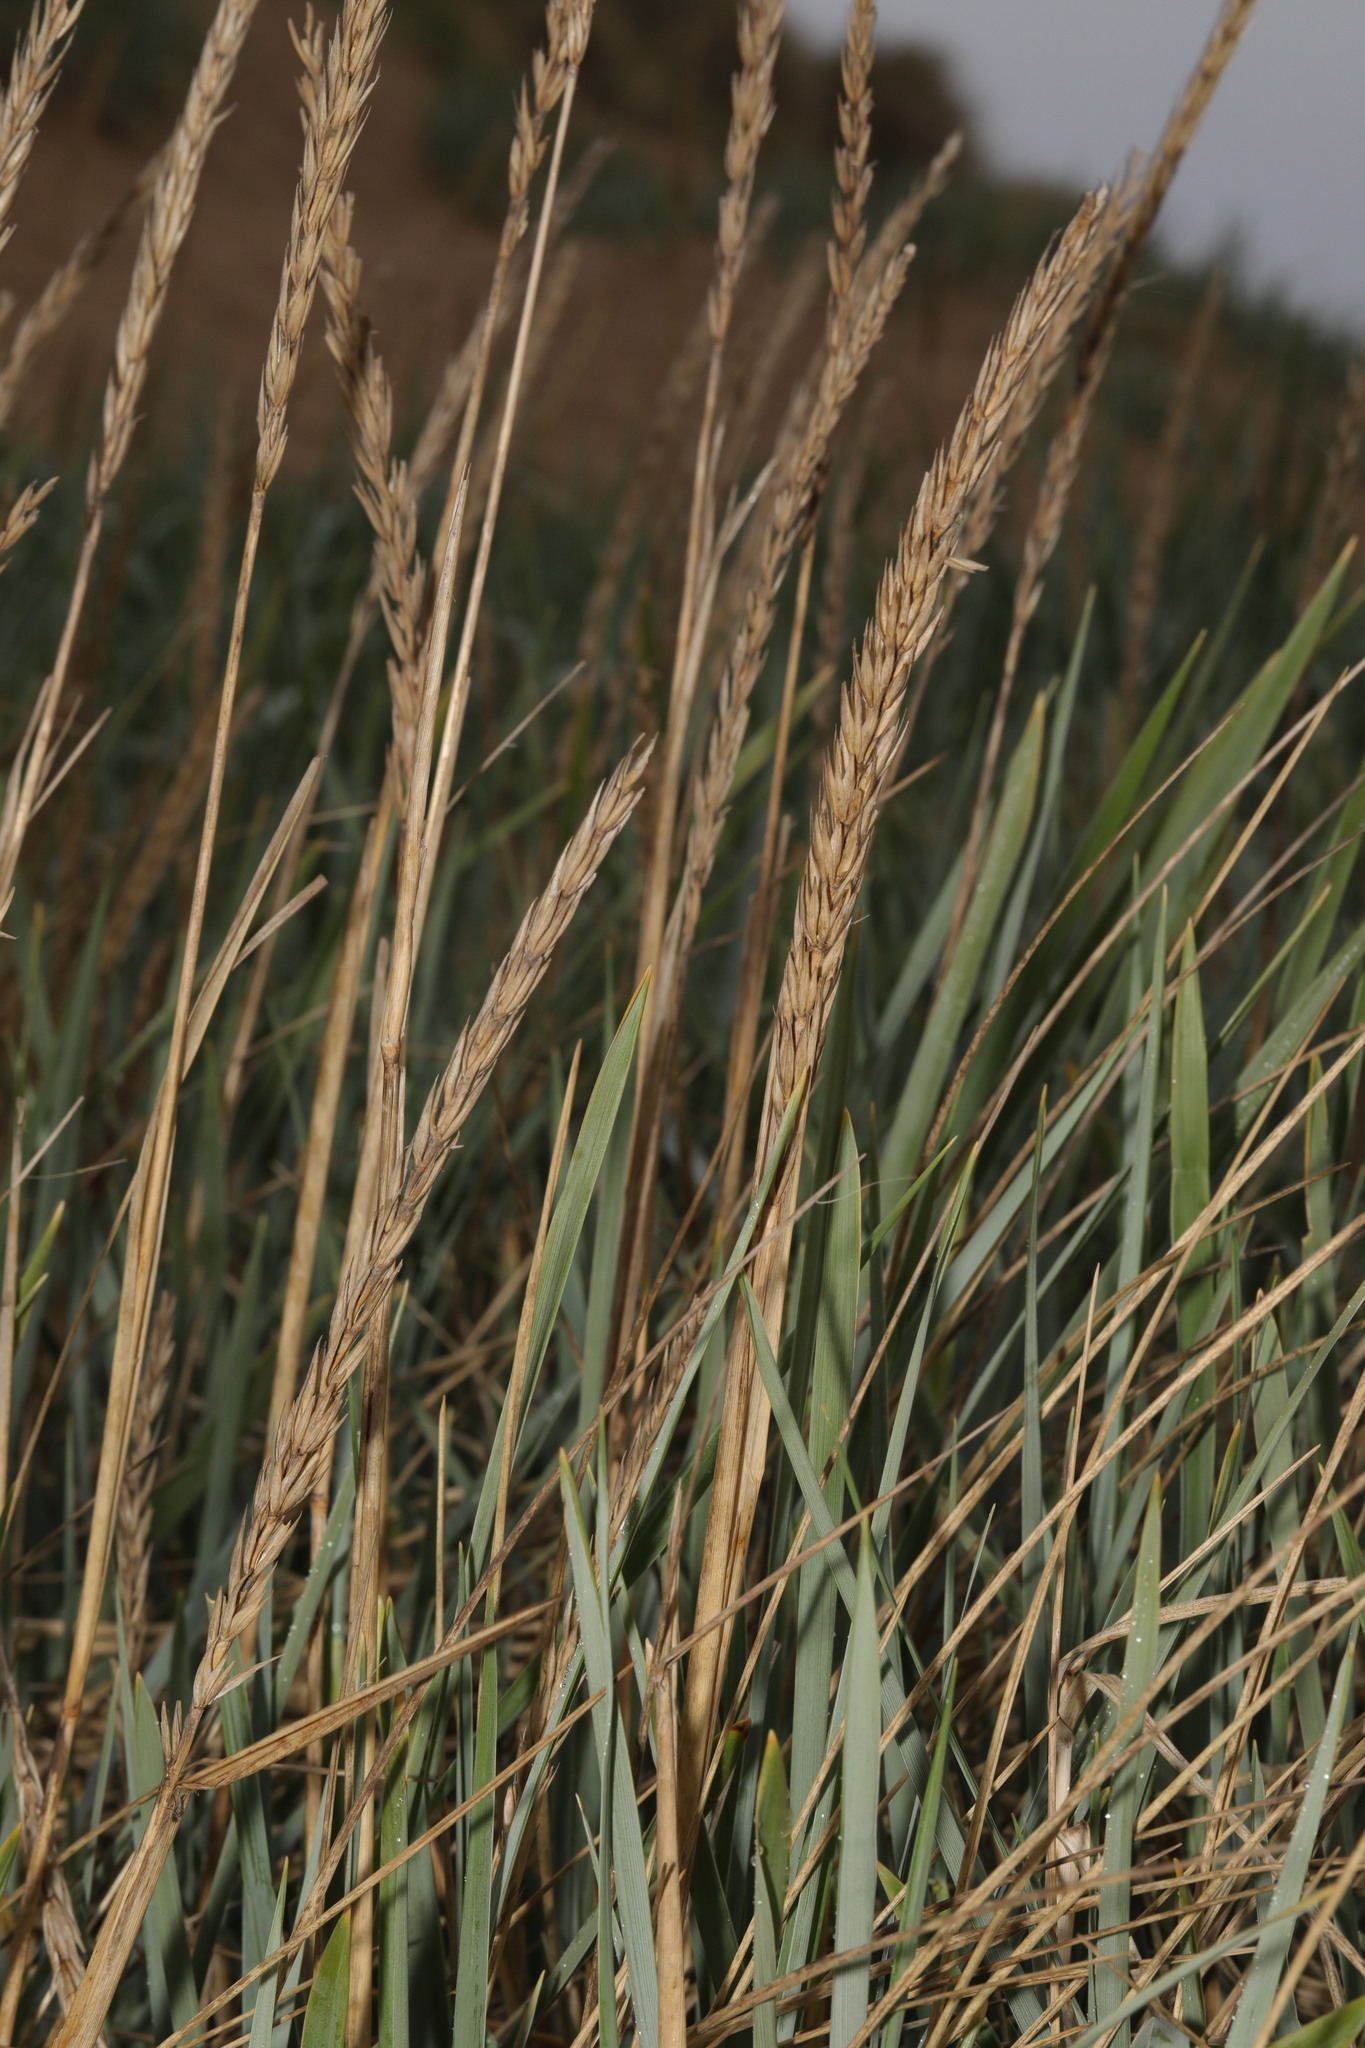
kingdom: Plantae
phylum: Tracheophyta
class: Liliopsida
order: Poales
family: Poaceae
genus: Leymus
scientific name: Leymus arenarius
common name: Lyme-grass
